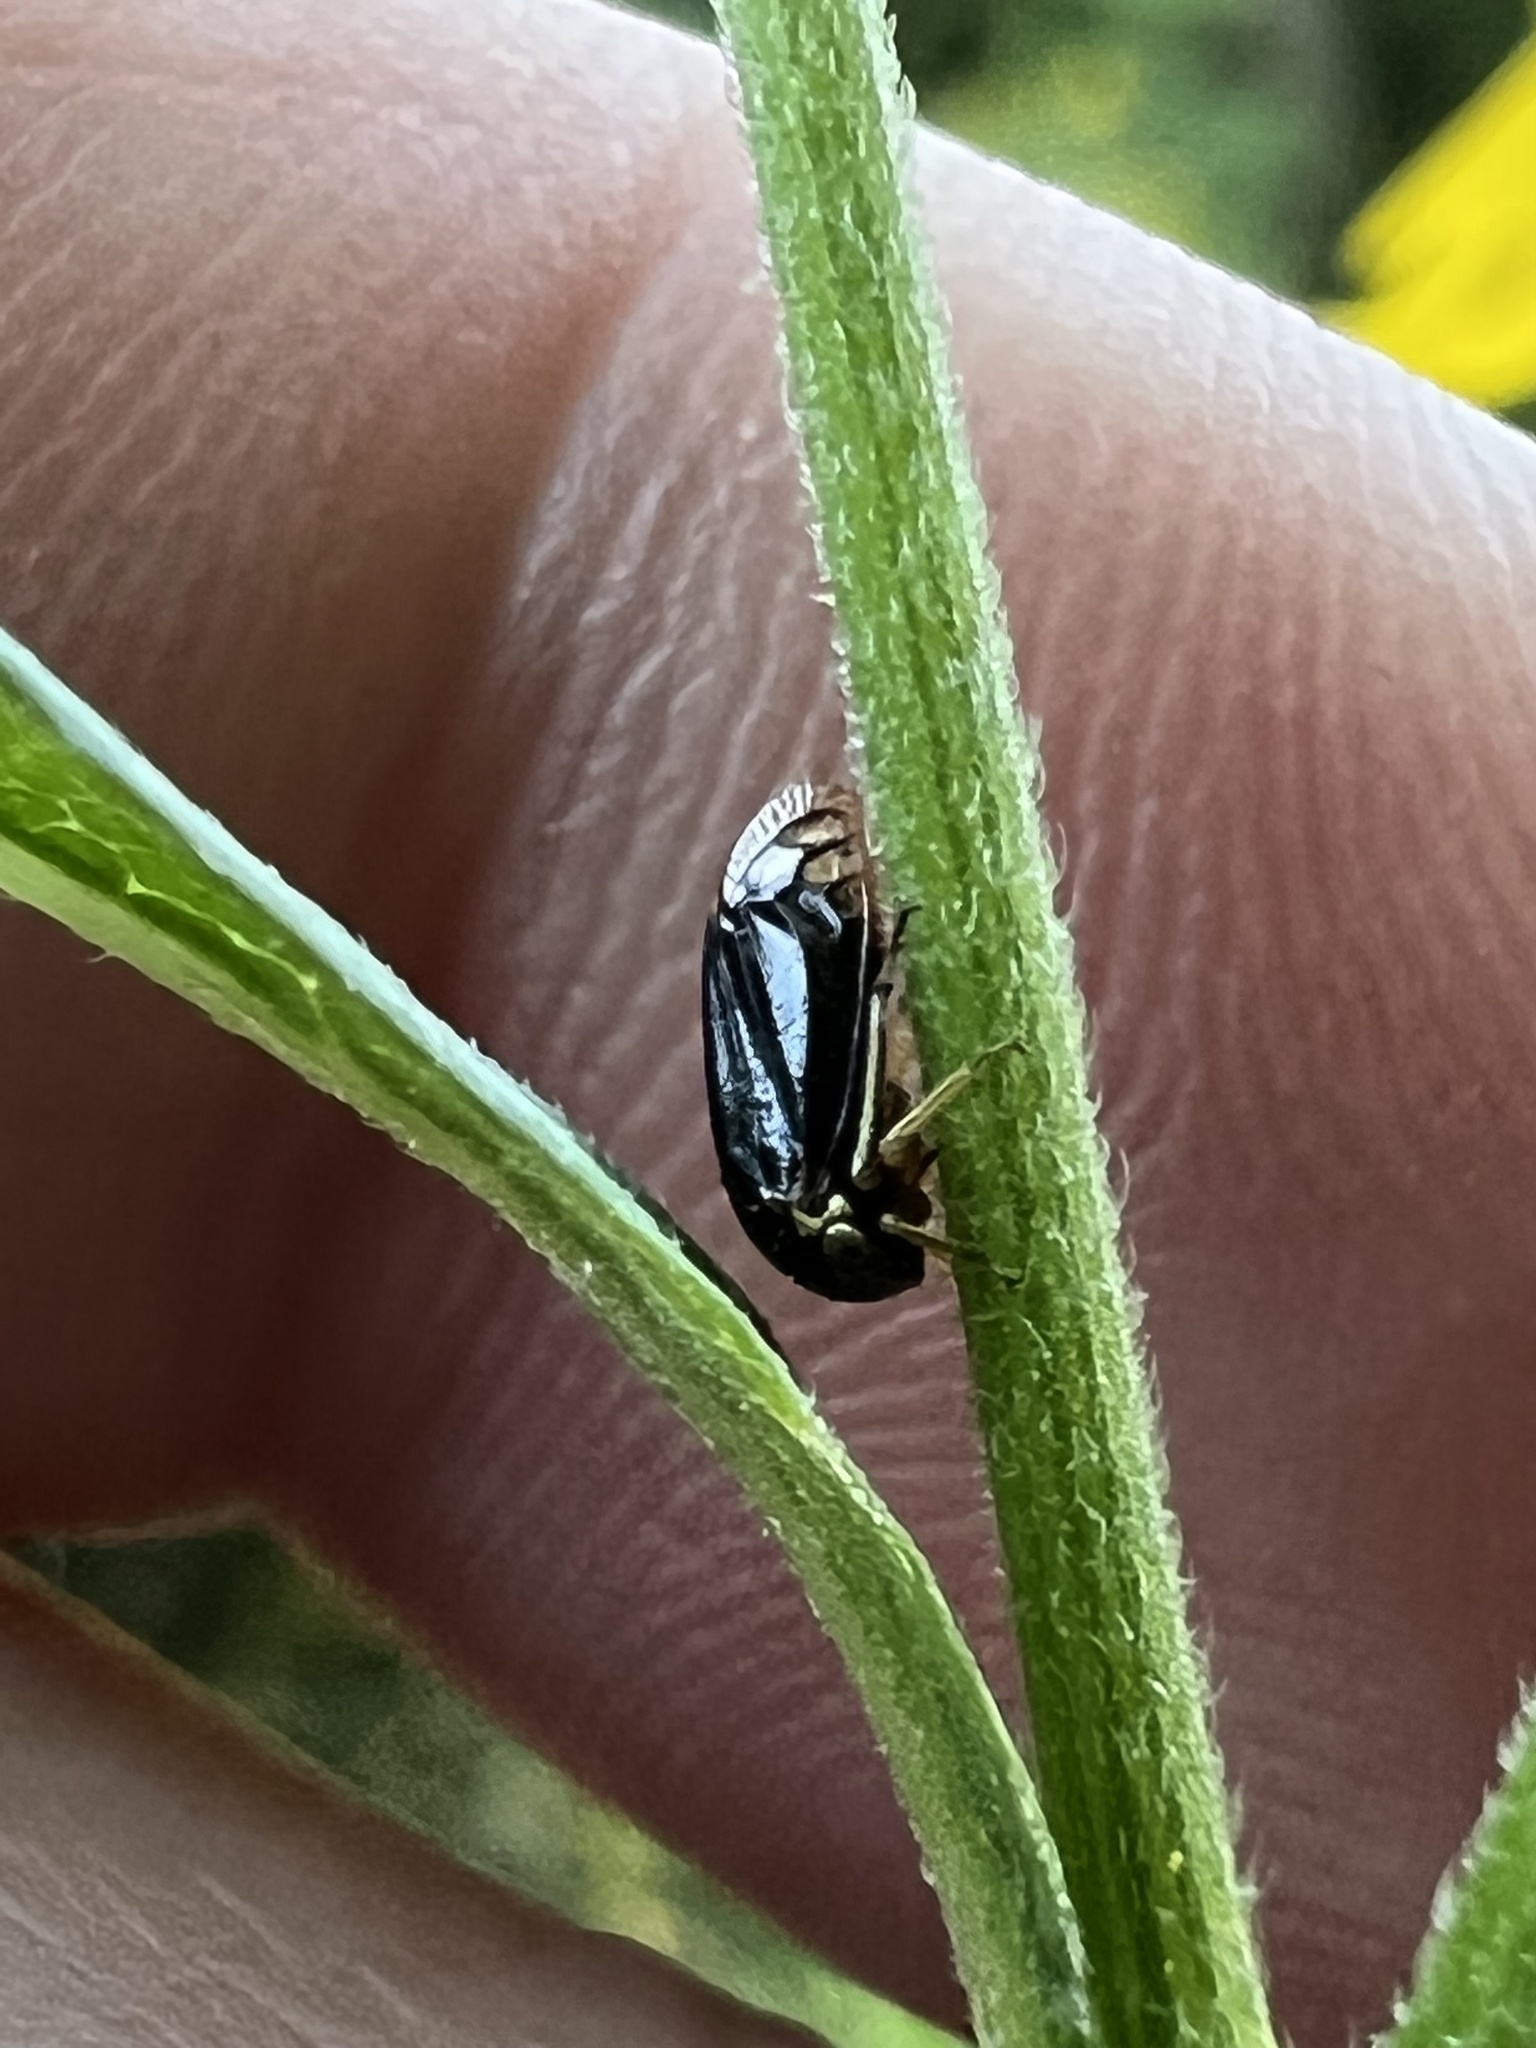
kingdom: Animalia
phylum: Arthropoda
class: Insecta
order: Hemiptera
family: Membracidae
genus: Acutalis
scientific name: Acutalis tartarea
